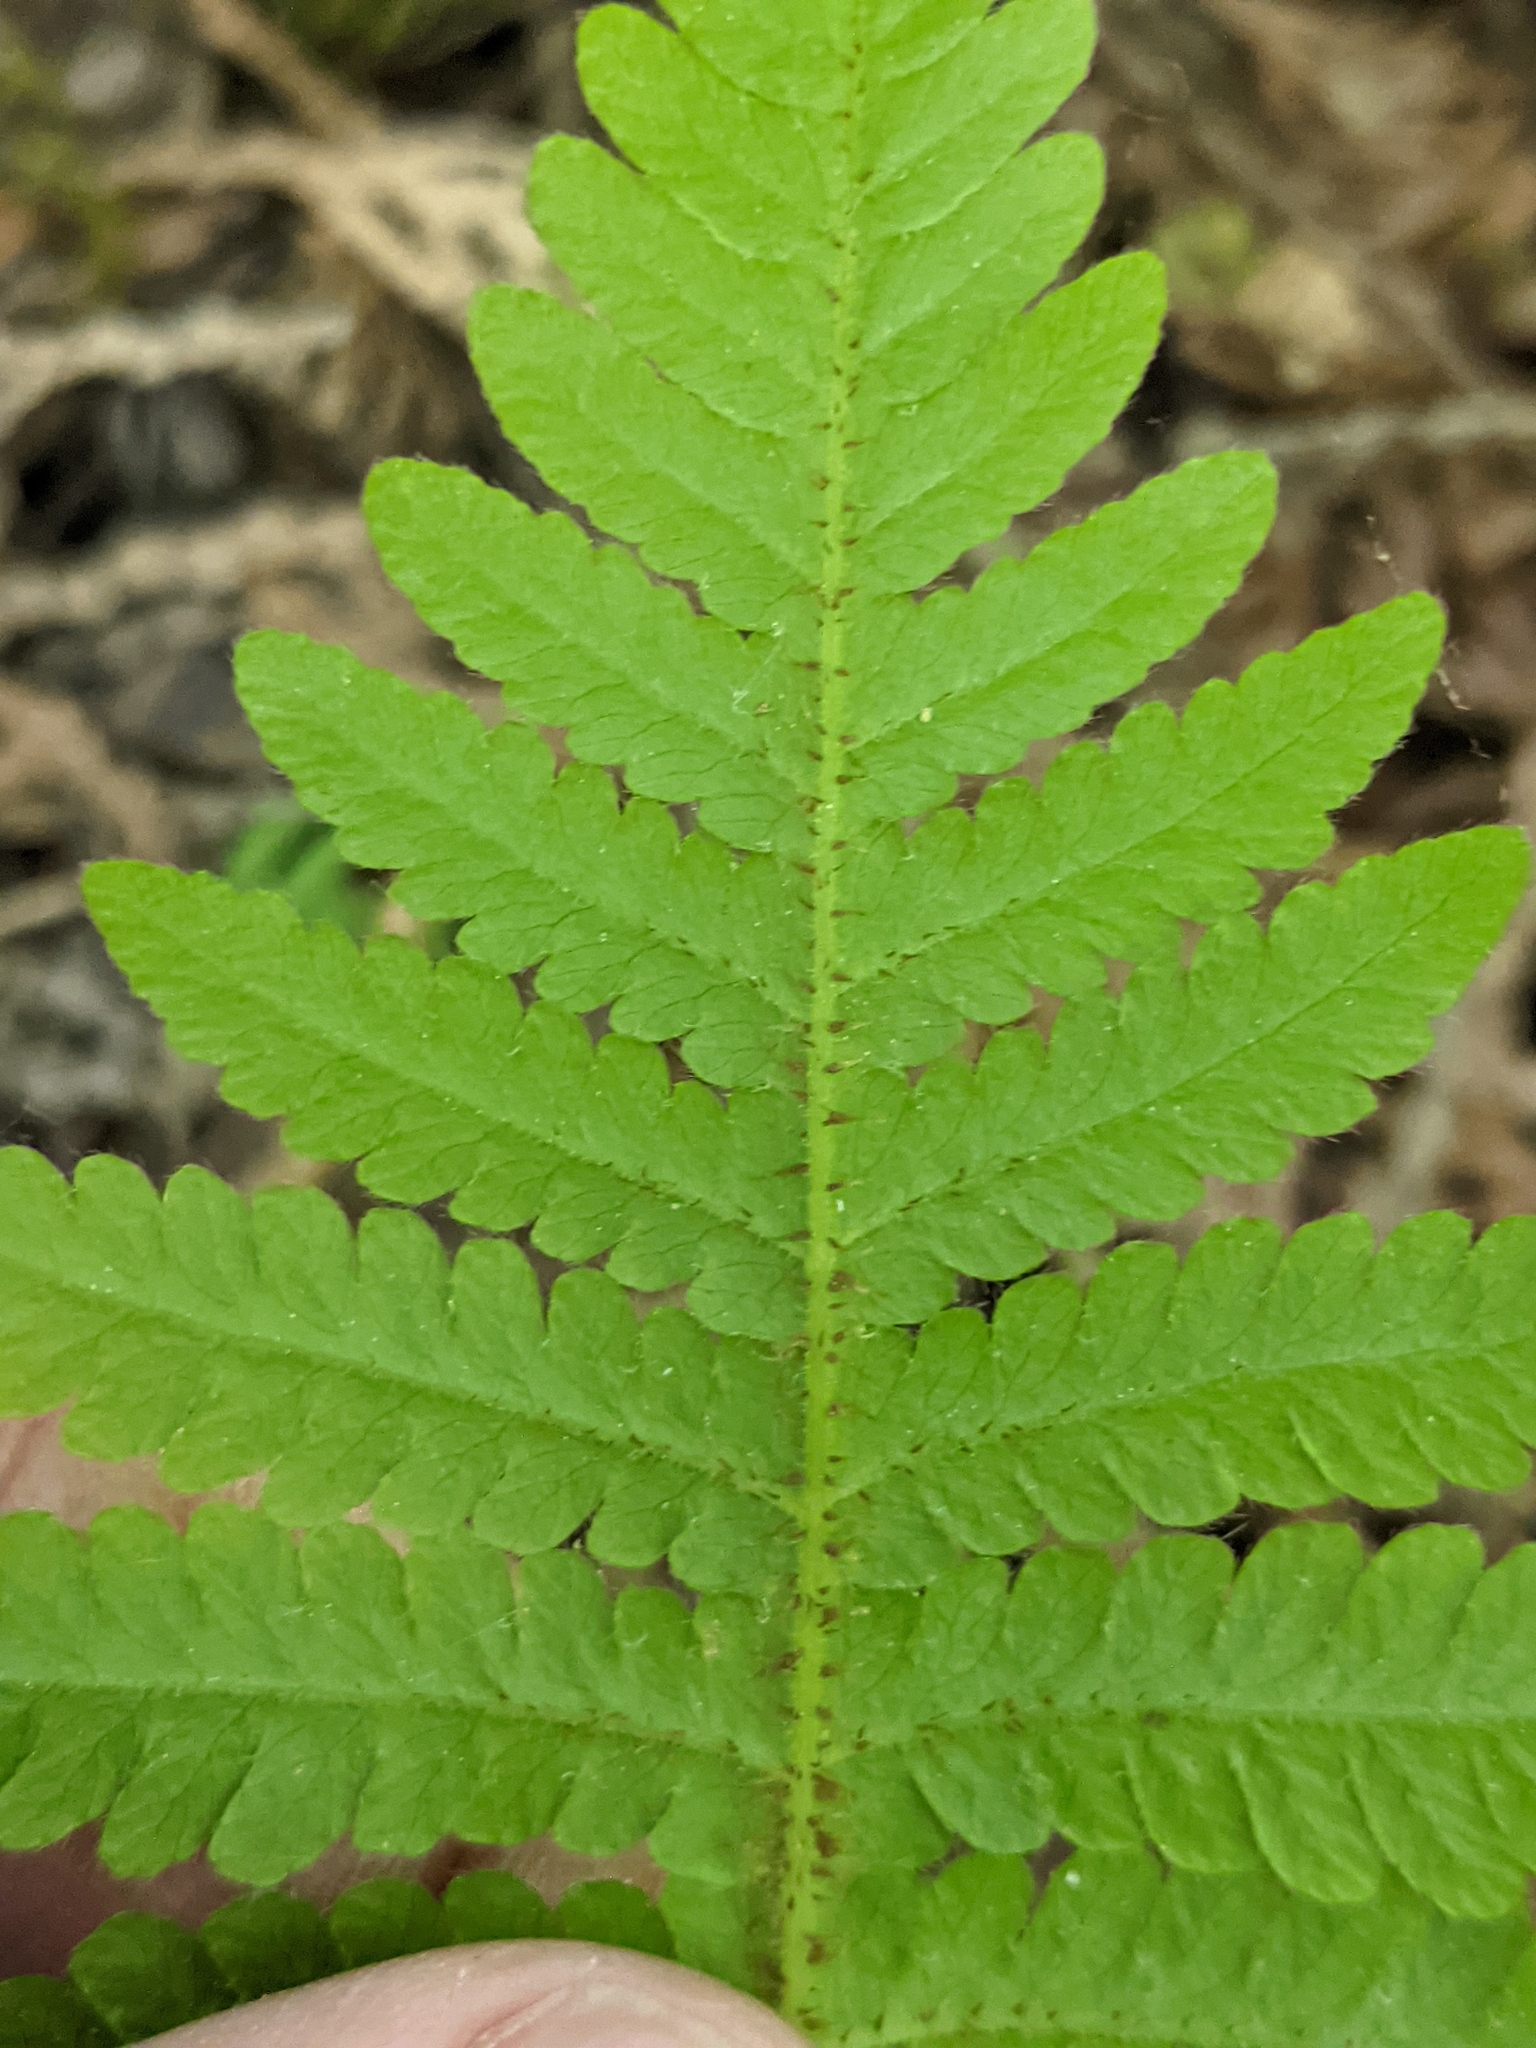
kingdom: Plantae
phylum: Tracheophyta
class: Polypodiopsida
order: Polypodiales
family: Thelypteridaceae
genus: Phegopteris
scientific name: Phegopteris connectilis
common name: Beech fern
